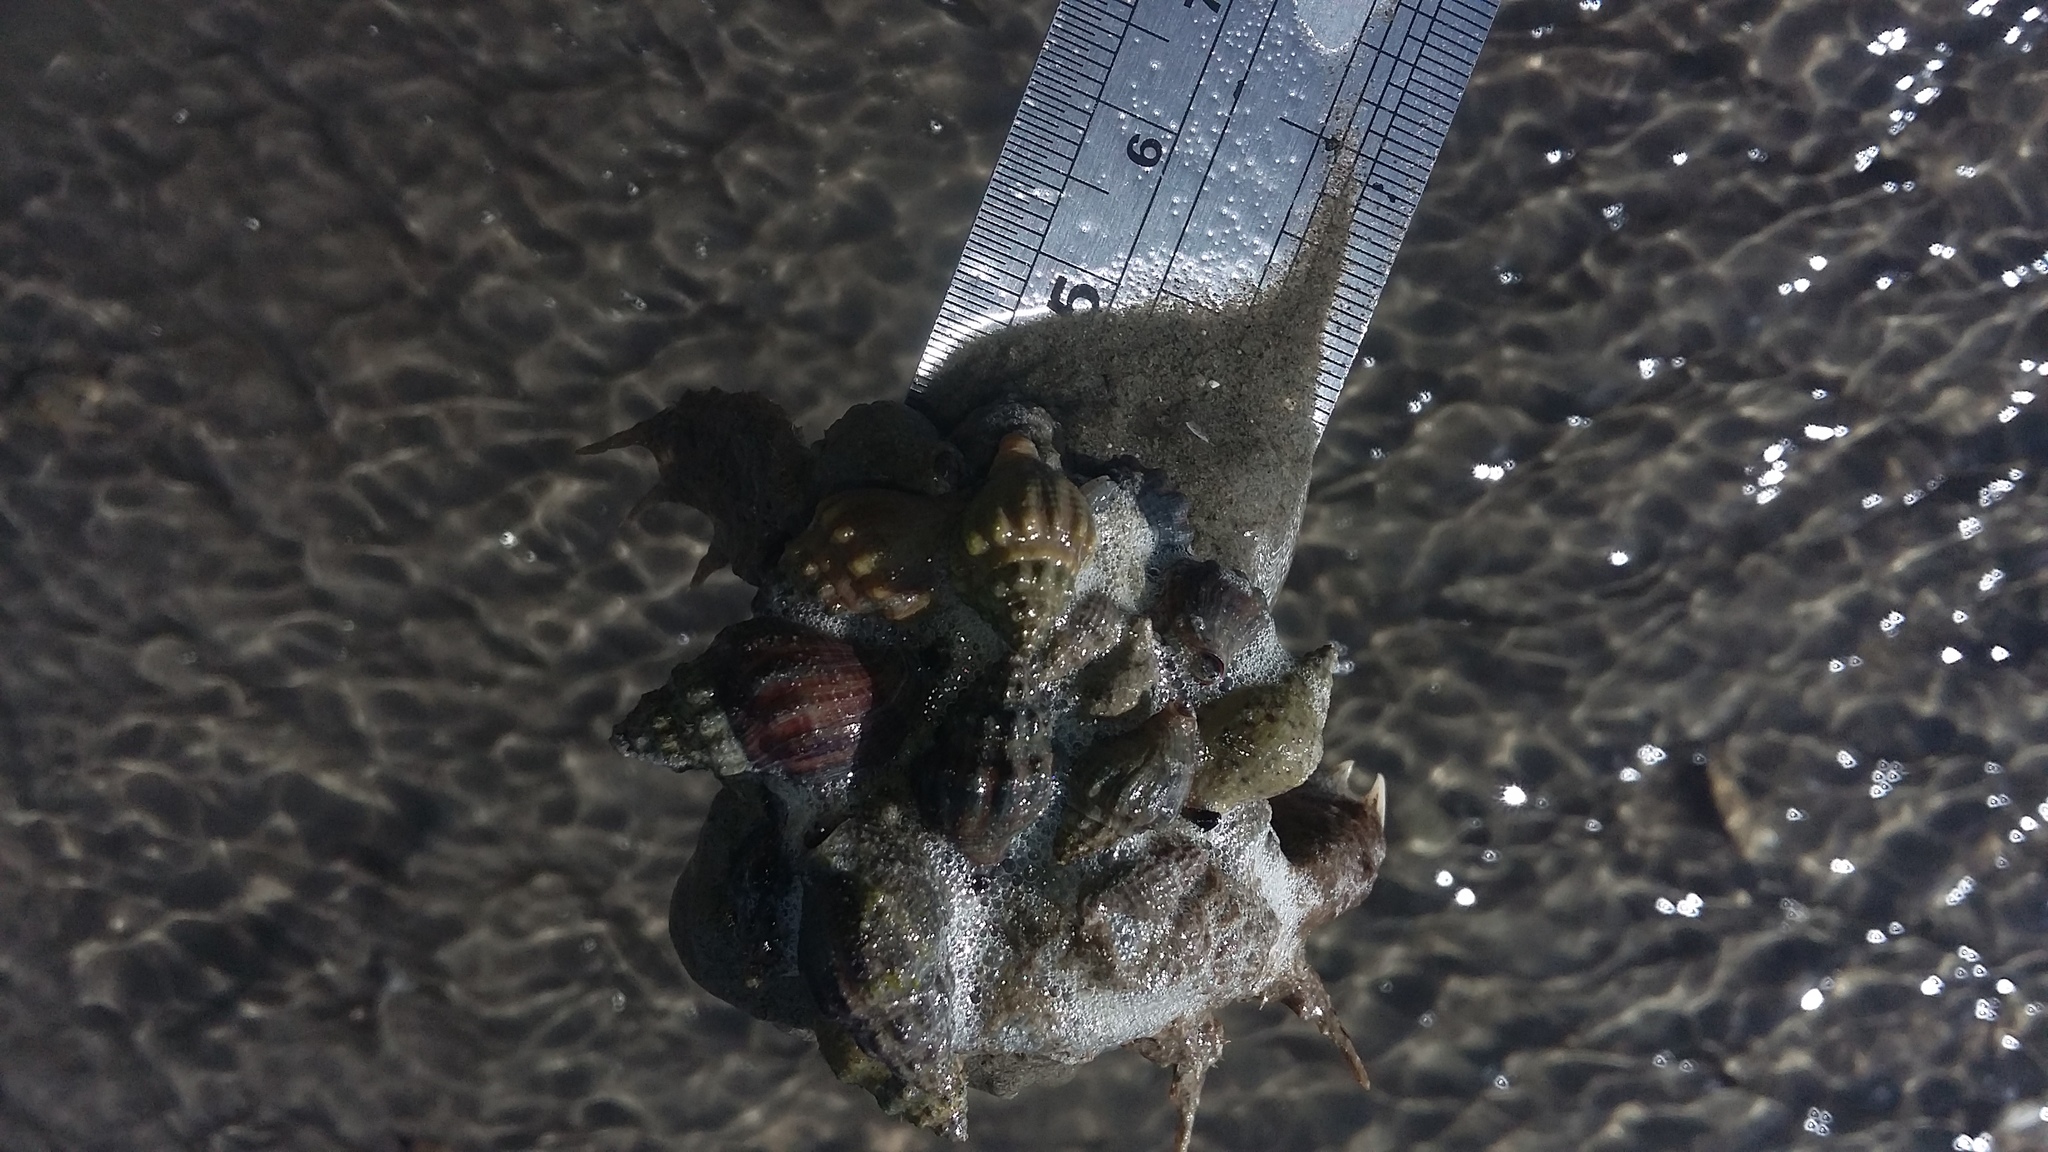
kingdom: Animalia
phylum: Mollusca
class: Gastropoda
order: Neogastropoda
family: Cominellidae
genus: Cominella
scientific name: Cominella glandiformis
